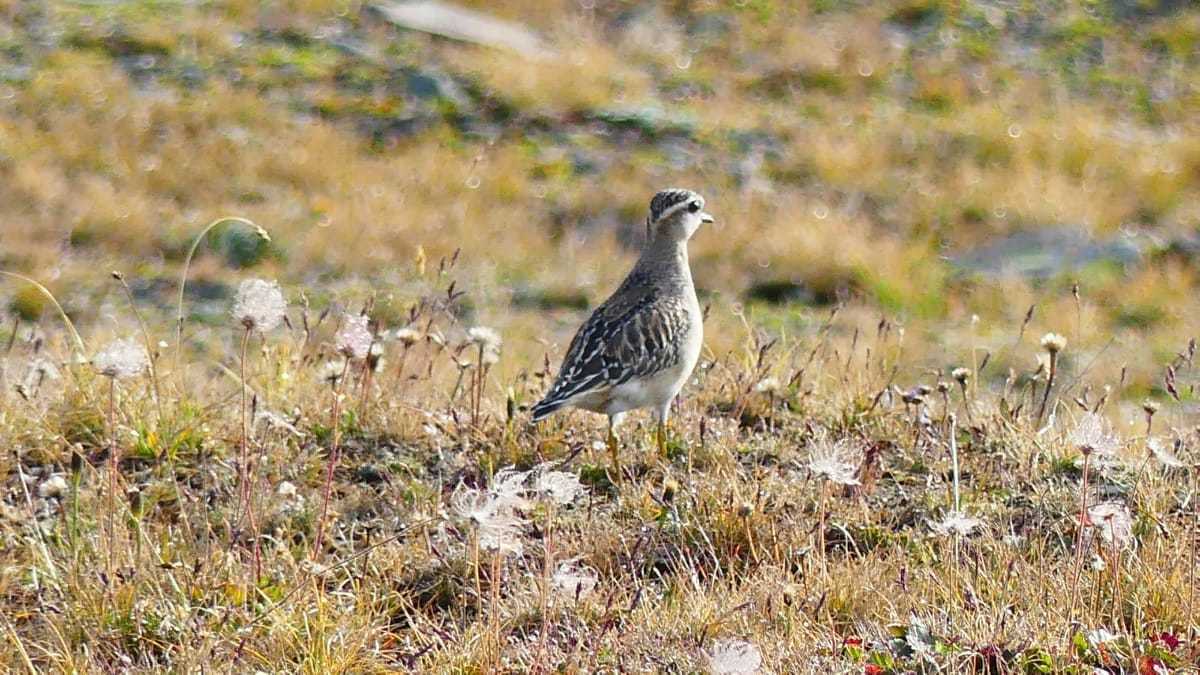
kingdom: Animalia
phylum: Chordata
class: Aves
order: Charadriiformes
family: Charadriidae
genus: Charadrius
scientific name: Charadrius morinellus
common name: Eurasian dotterel
